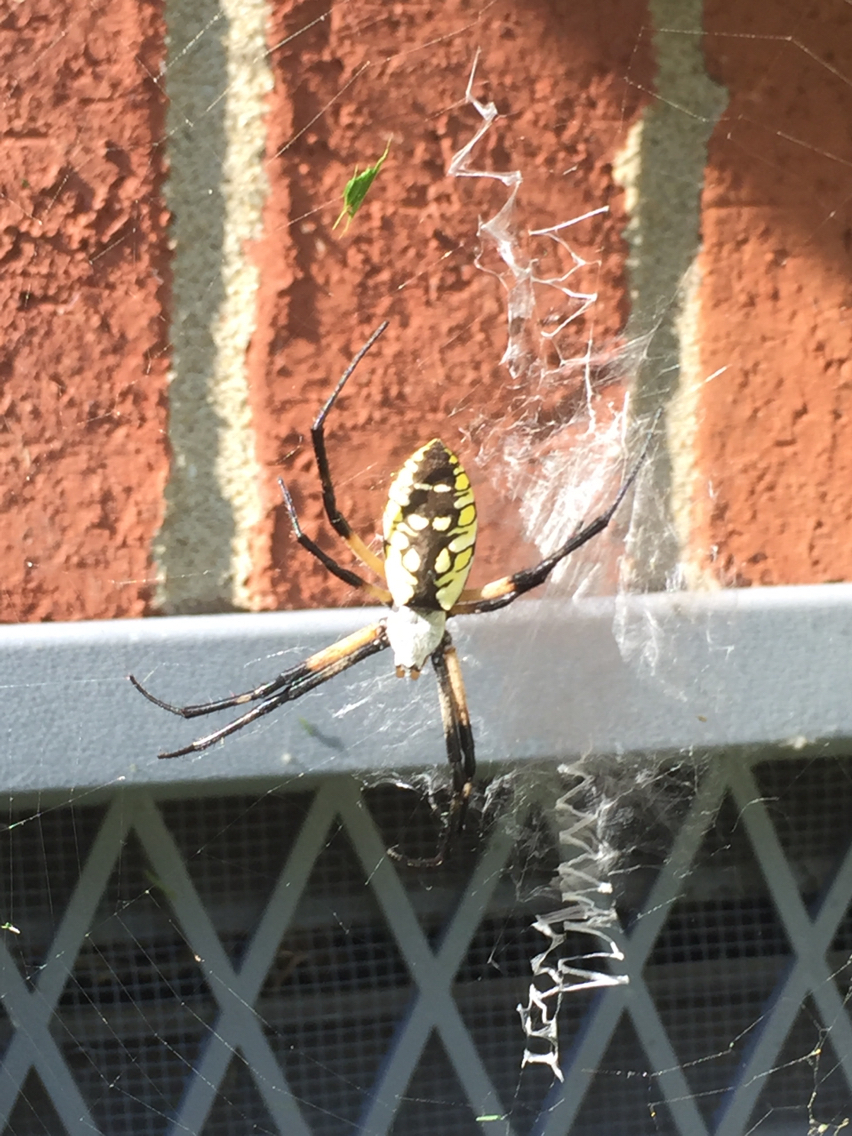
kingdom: Animalia
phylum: Arthropoda
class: Arachnida
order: Araneae
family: Araneidae
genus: Argiope
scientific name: Argiope aurantia
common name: Orb weavers
